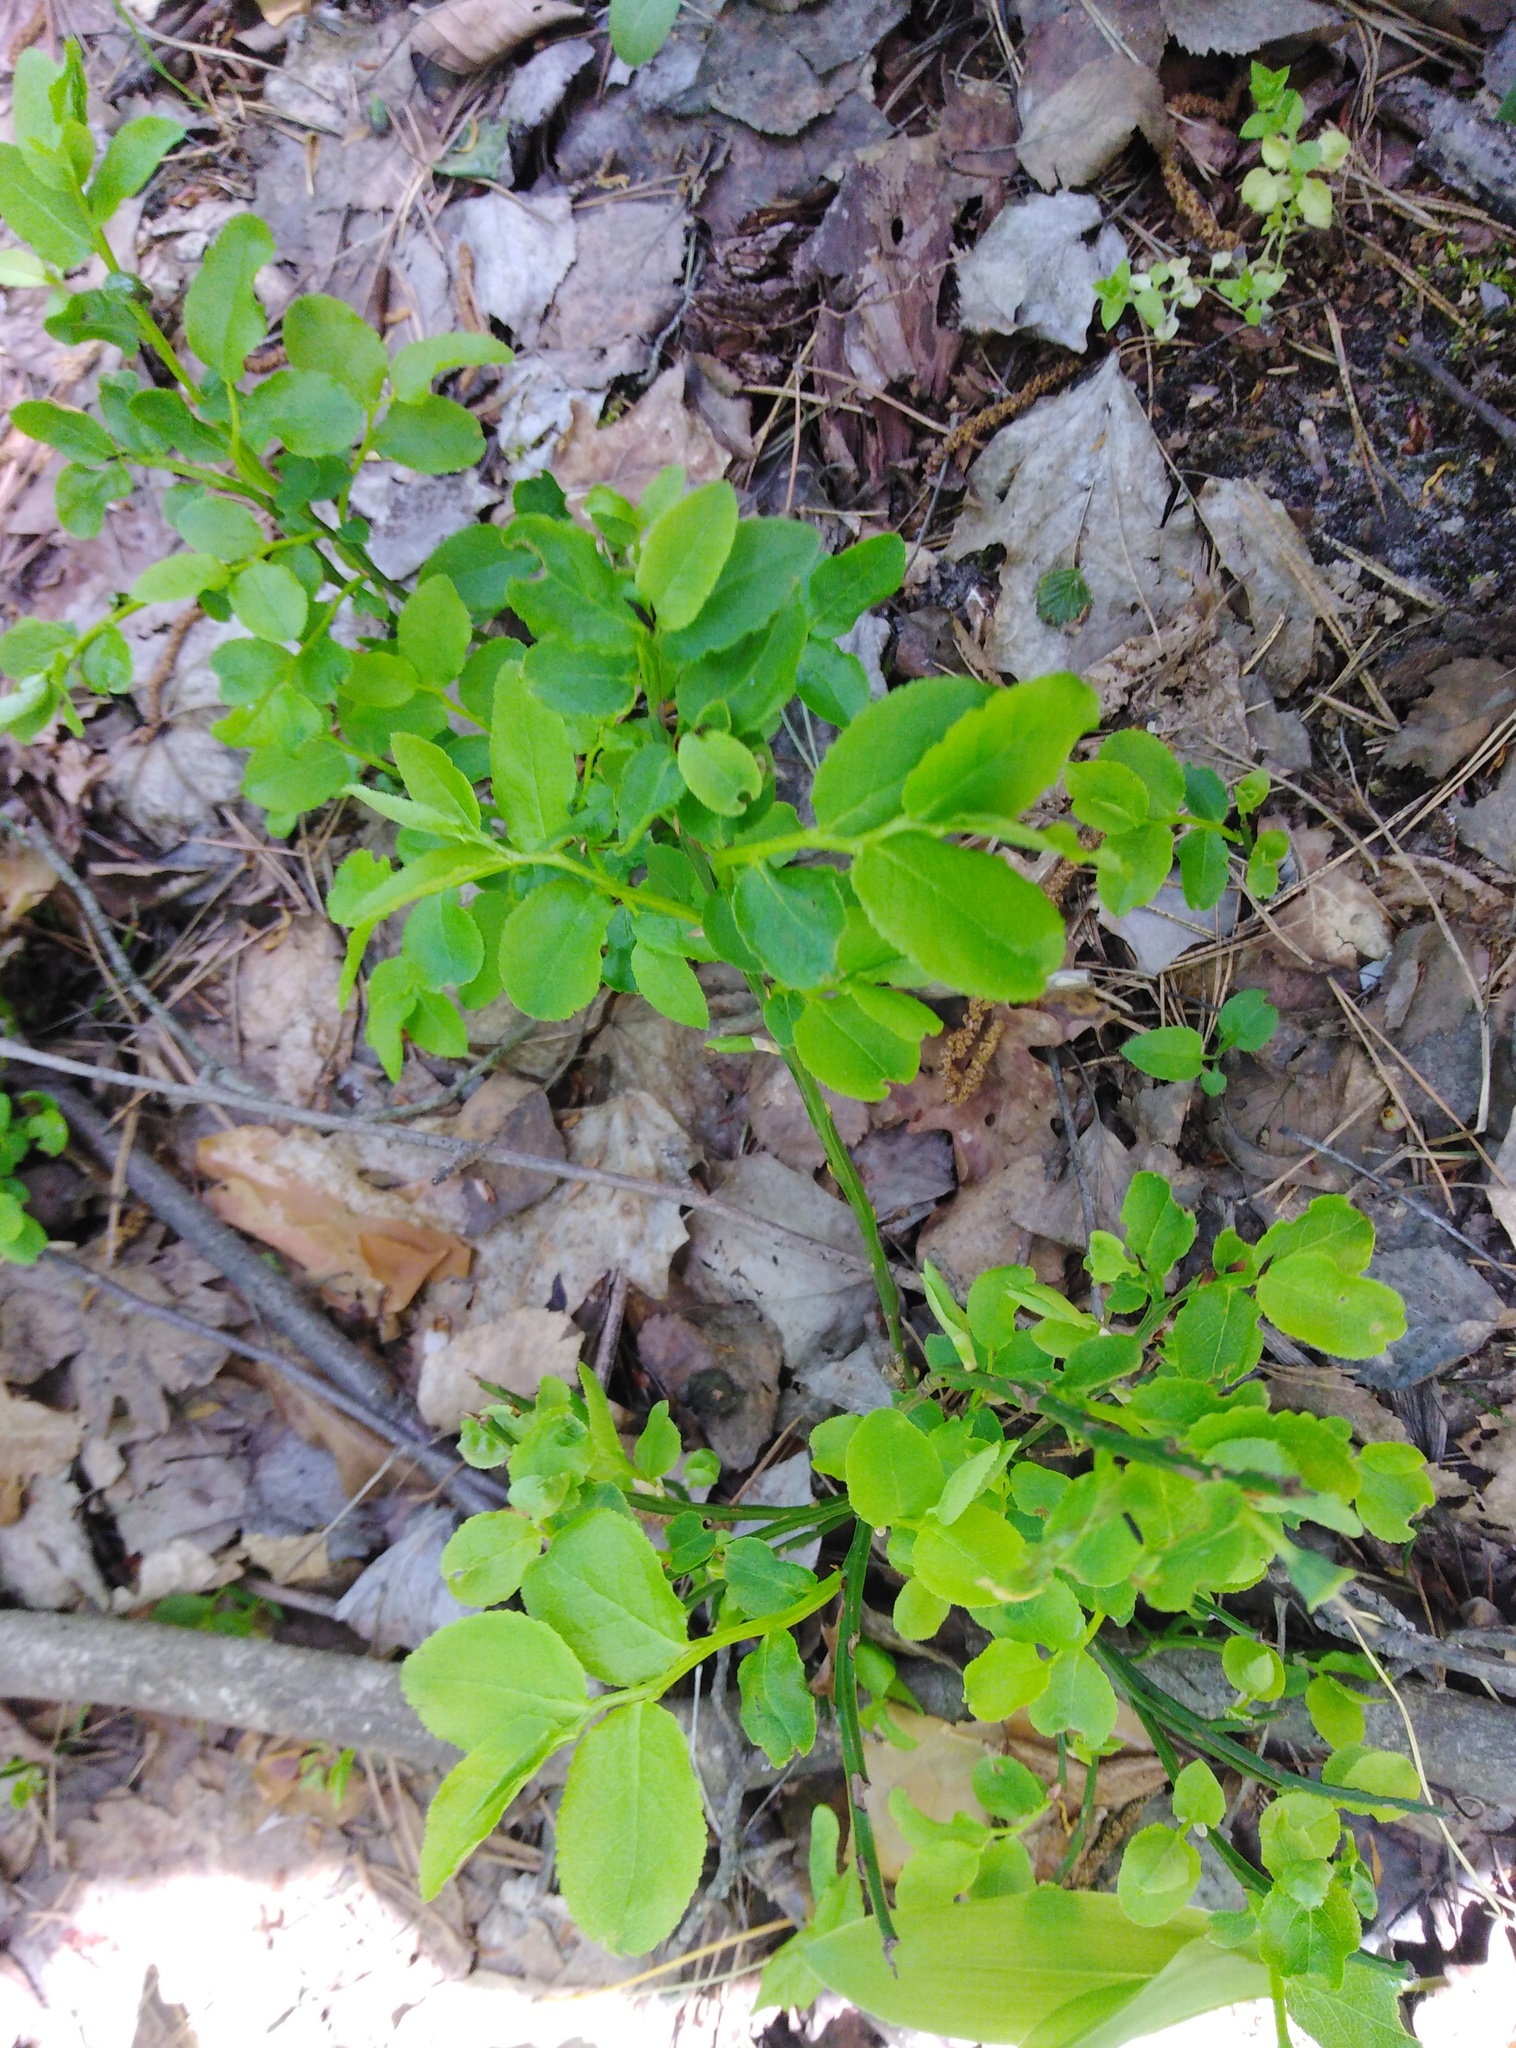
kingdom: Plantae
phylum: Tracheophyta
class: Magnoliopsida
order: Ericales
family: Ericaceae
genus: Vaccinium
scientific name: Vaccinium myrtillus
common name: Bilberry
